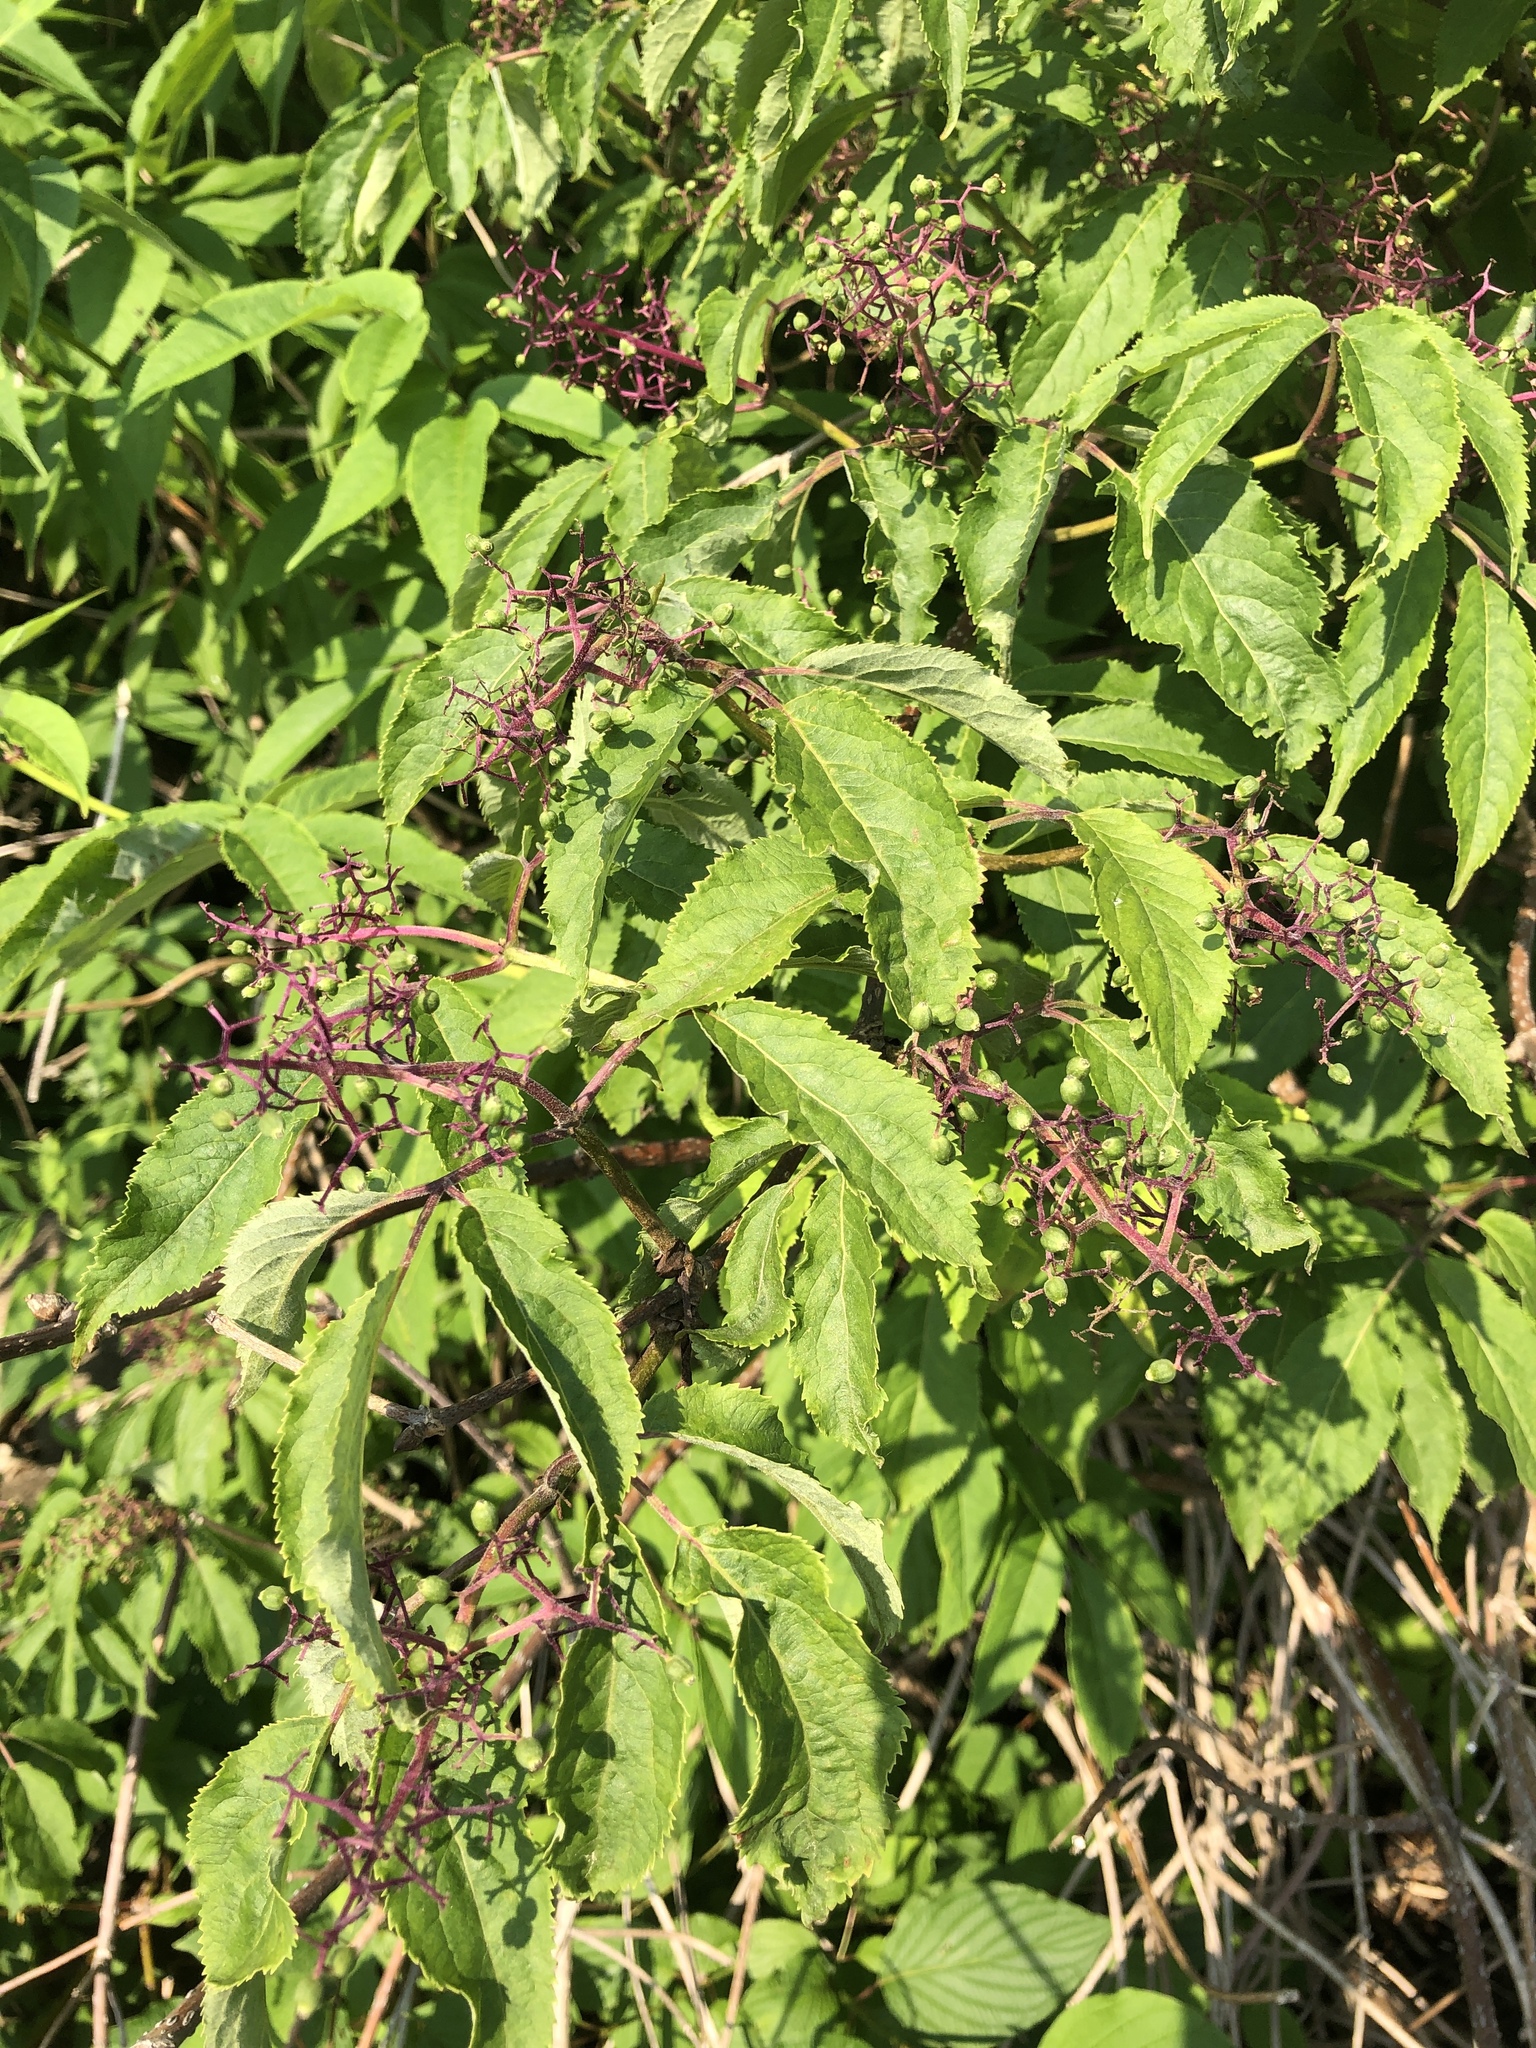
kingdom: Plantae
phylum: Tracheophyta
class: Magnoliopsida
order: Dipsacales
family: Viburnaceae
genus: Sambucus
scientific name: Sambucus racemosa
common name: Red-berried elder
